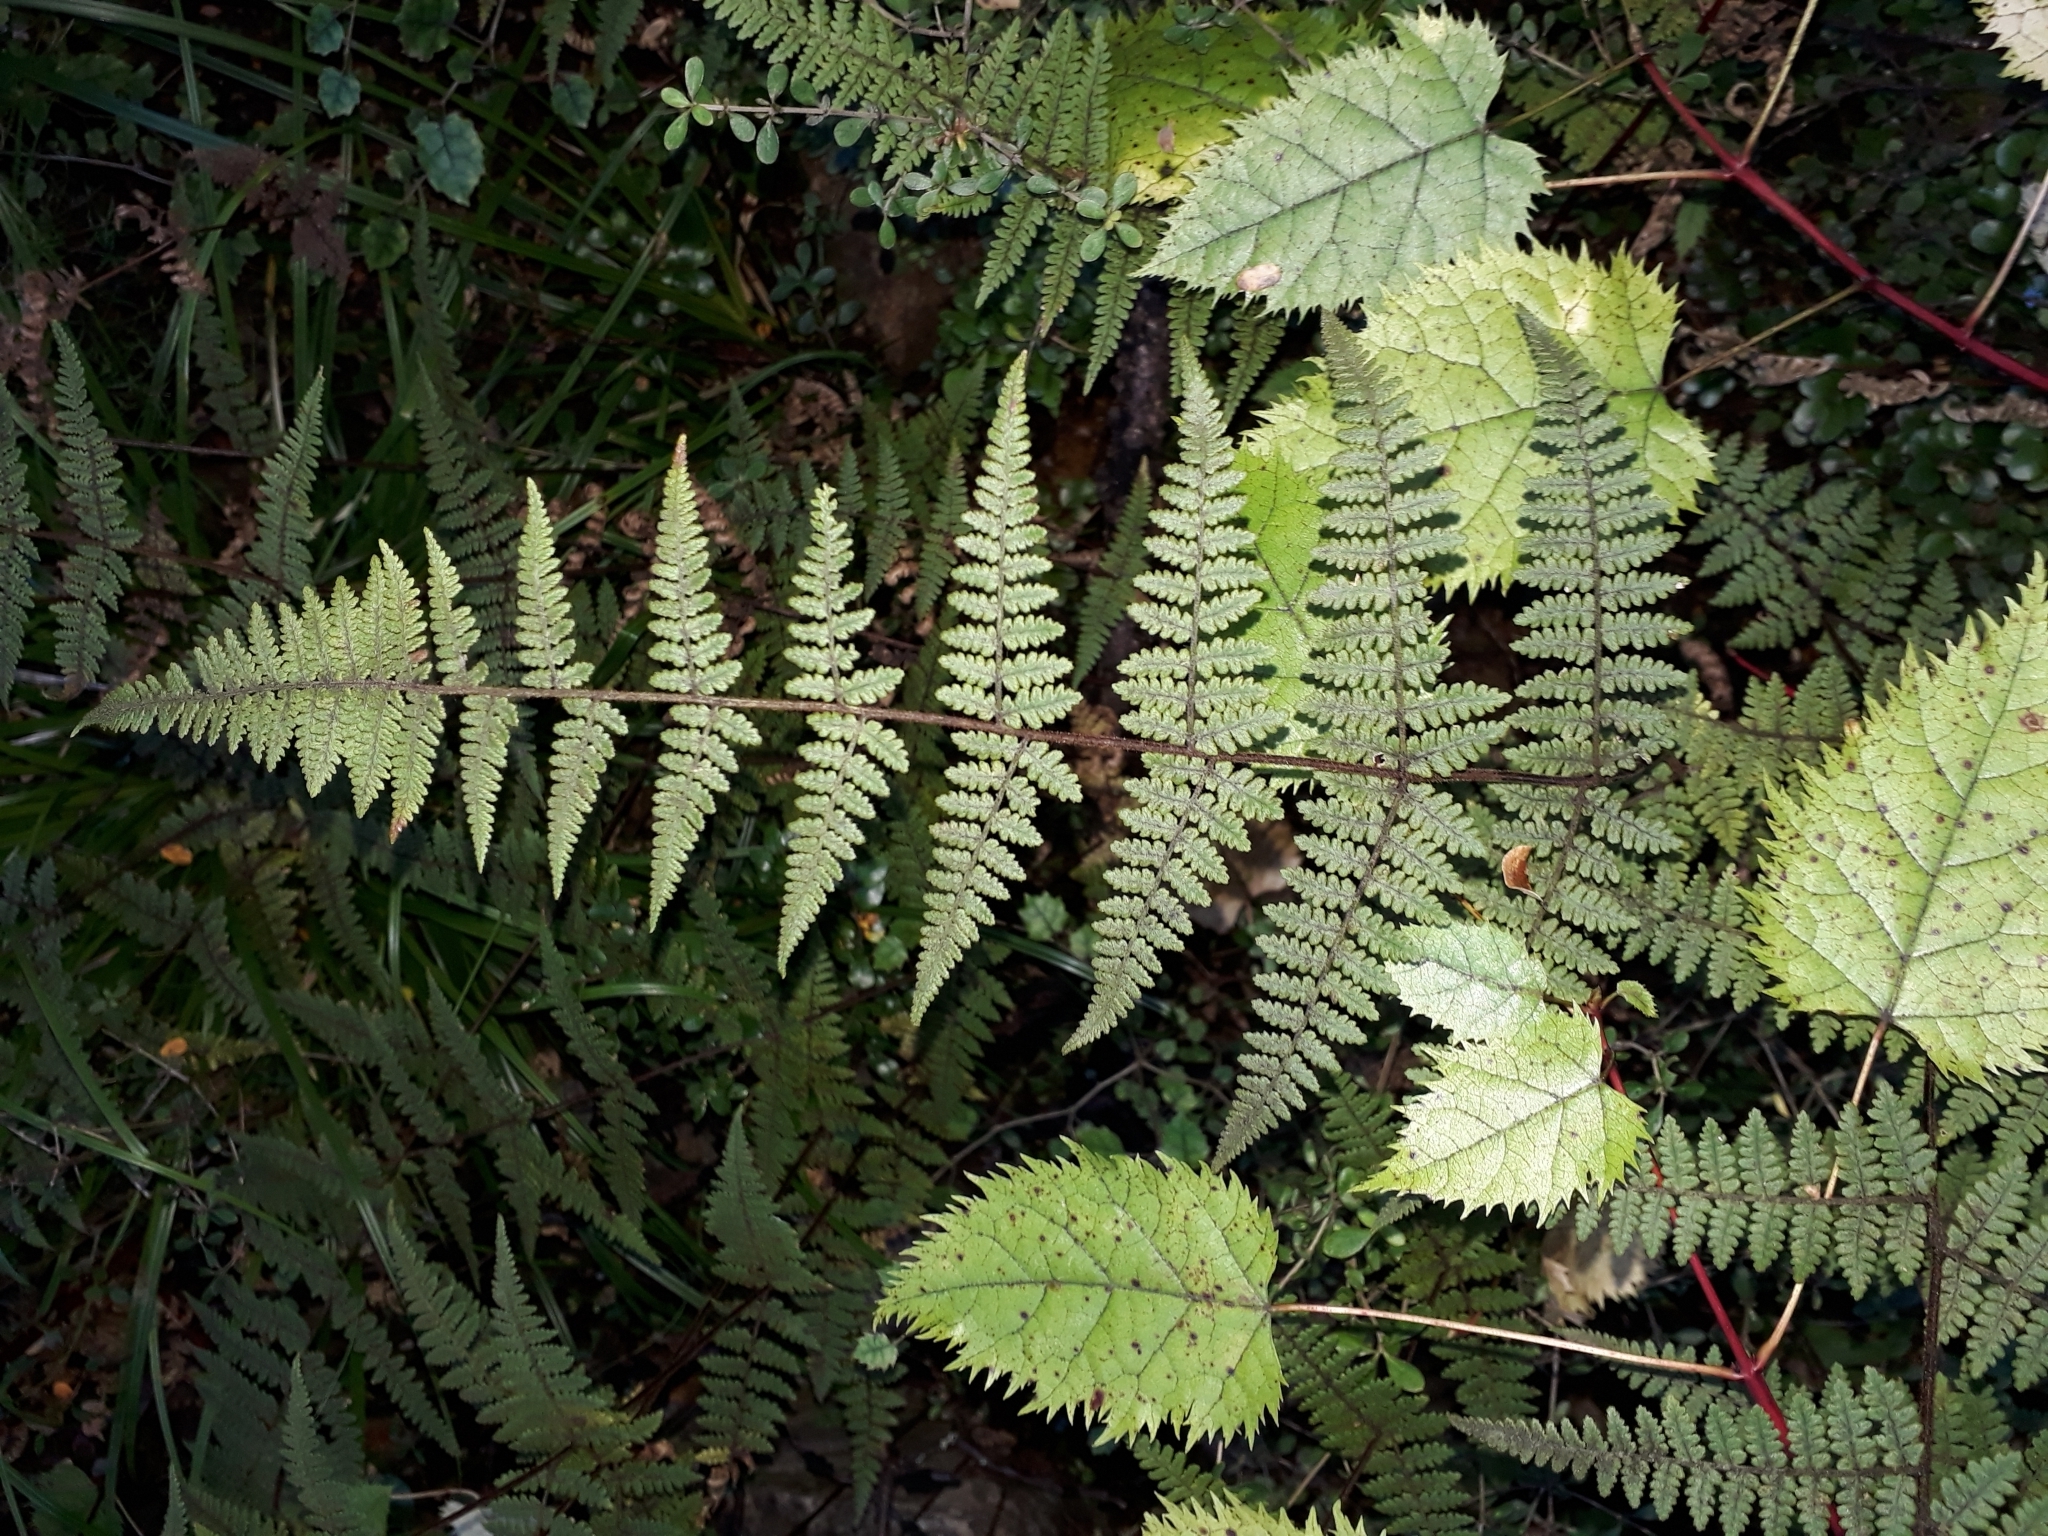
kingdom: Plantae
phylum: Tracheophyta
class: Polypodiopsida
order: Polypodiales
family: Dennstaedtiaceae
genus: Hypolepis
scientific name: Hypolepis rugosula
